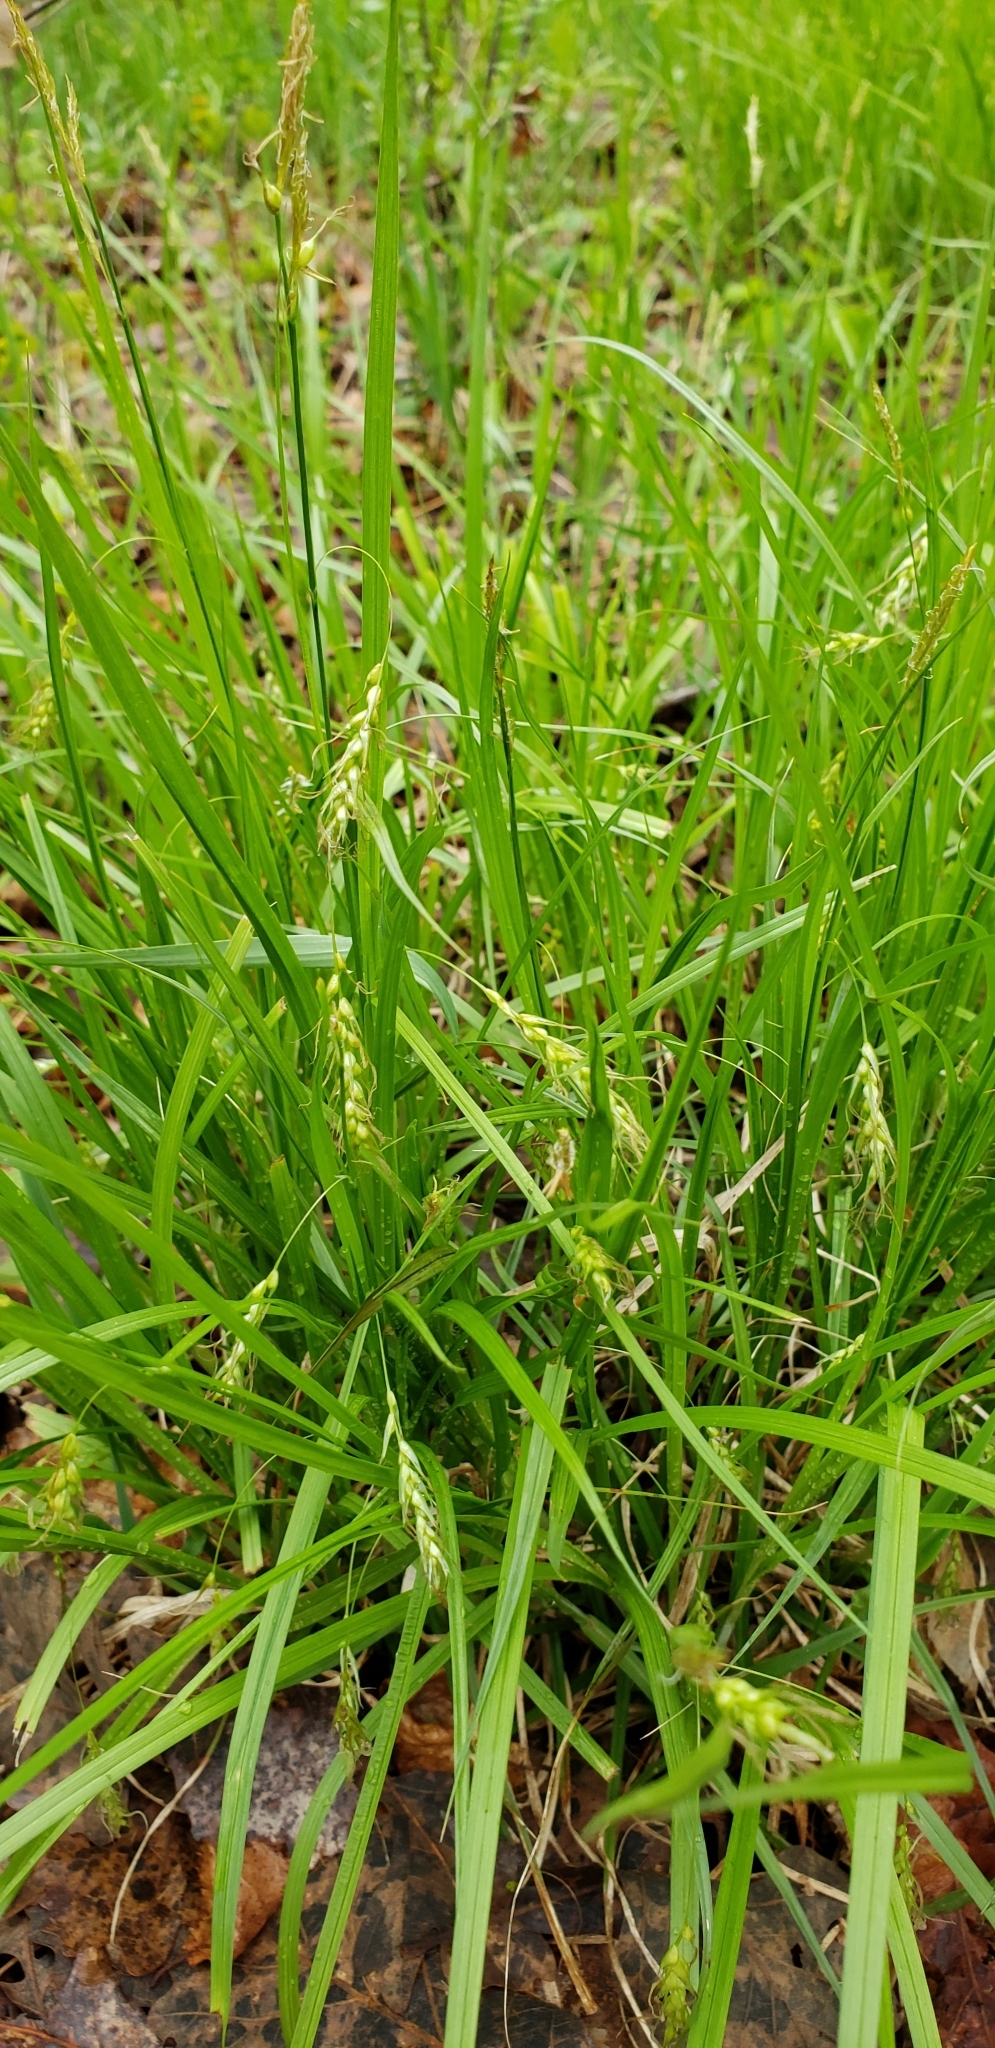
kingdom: Plantae
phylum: Tracheophyta
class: Liliopsida
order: Poales
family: Cyperaceae
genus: Carex
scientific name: Carex sprengelii
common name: Long-beaked sedge
